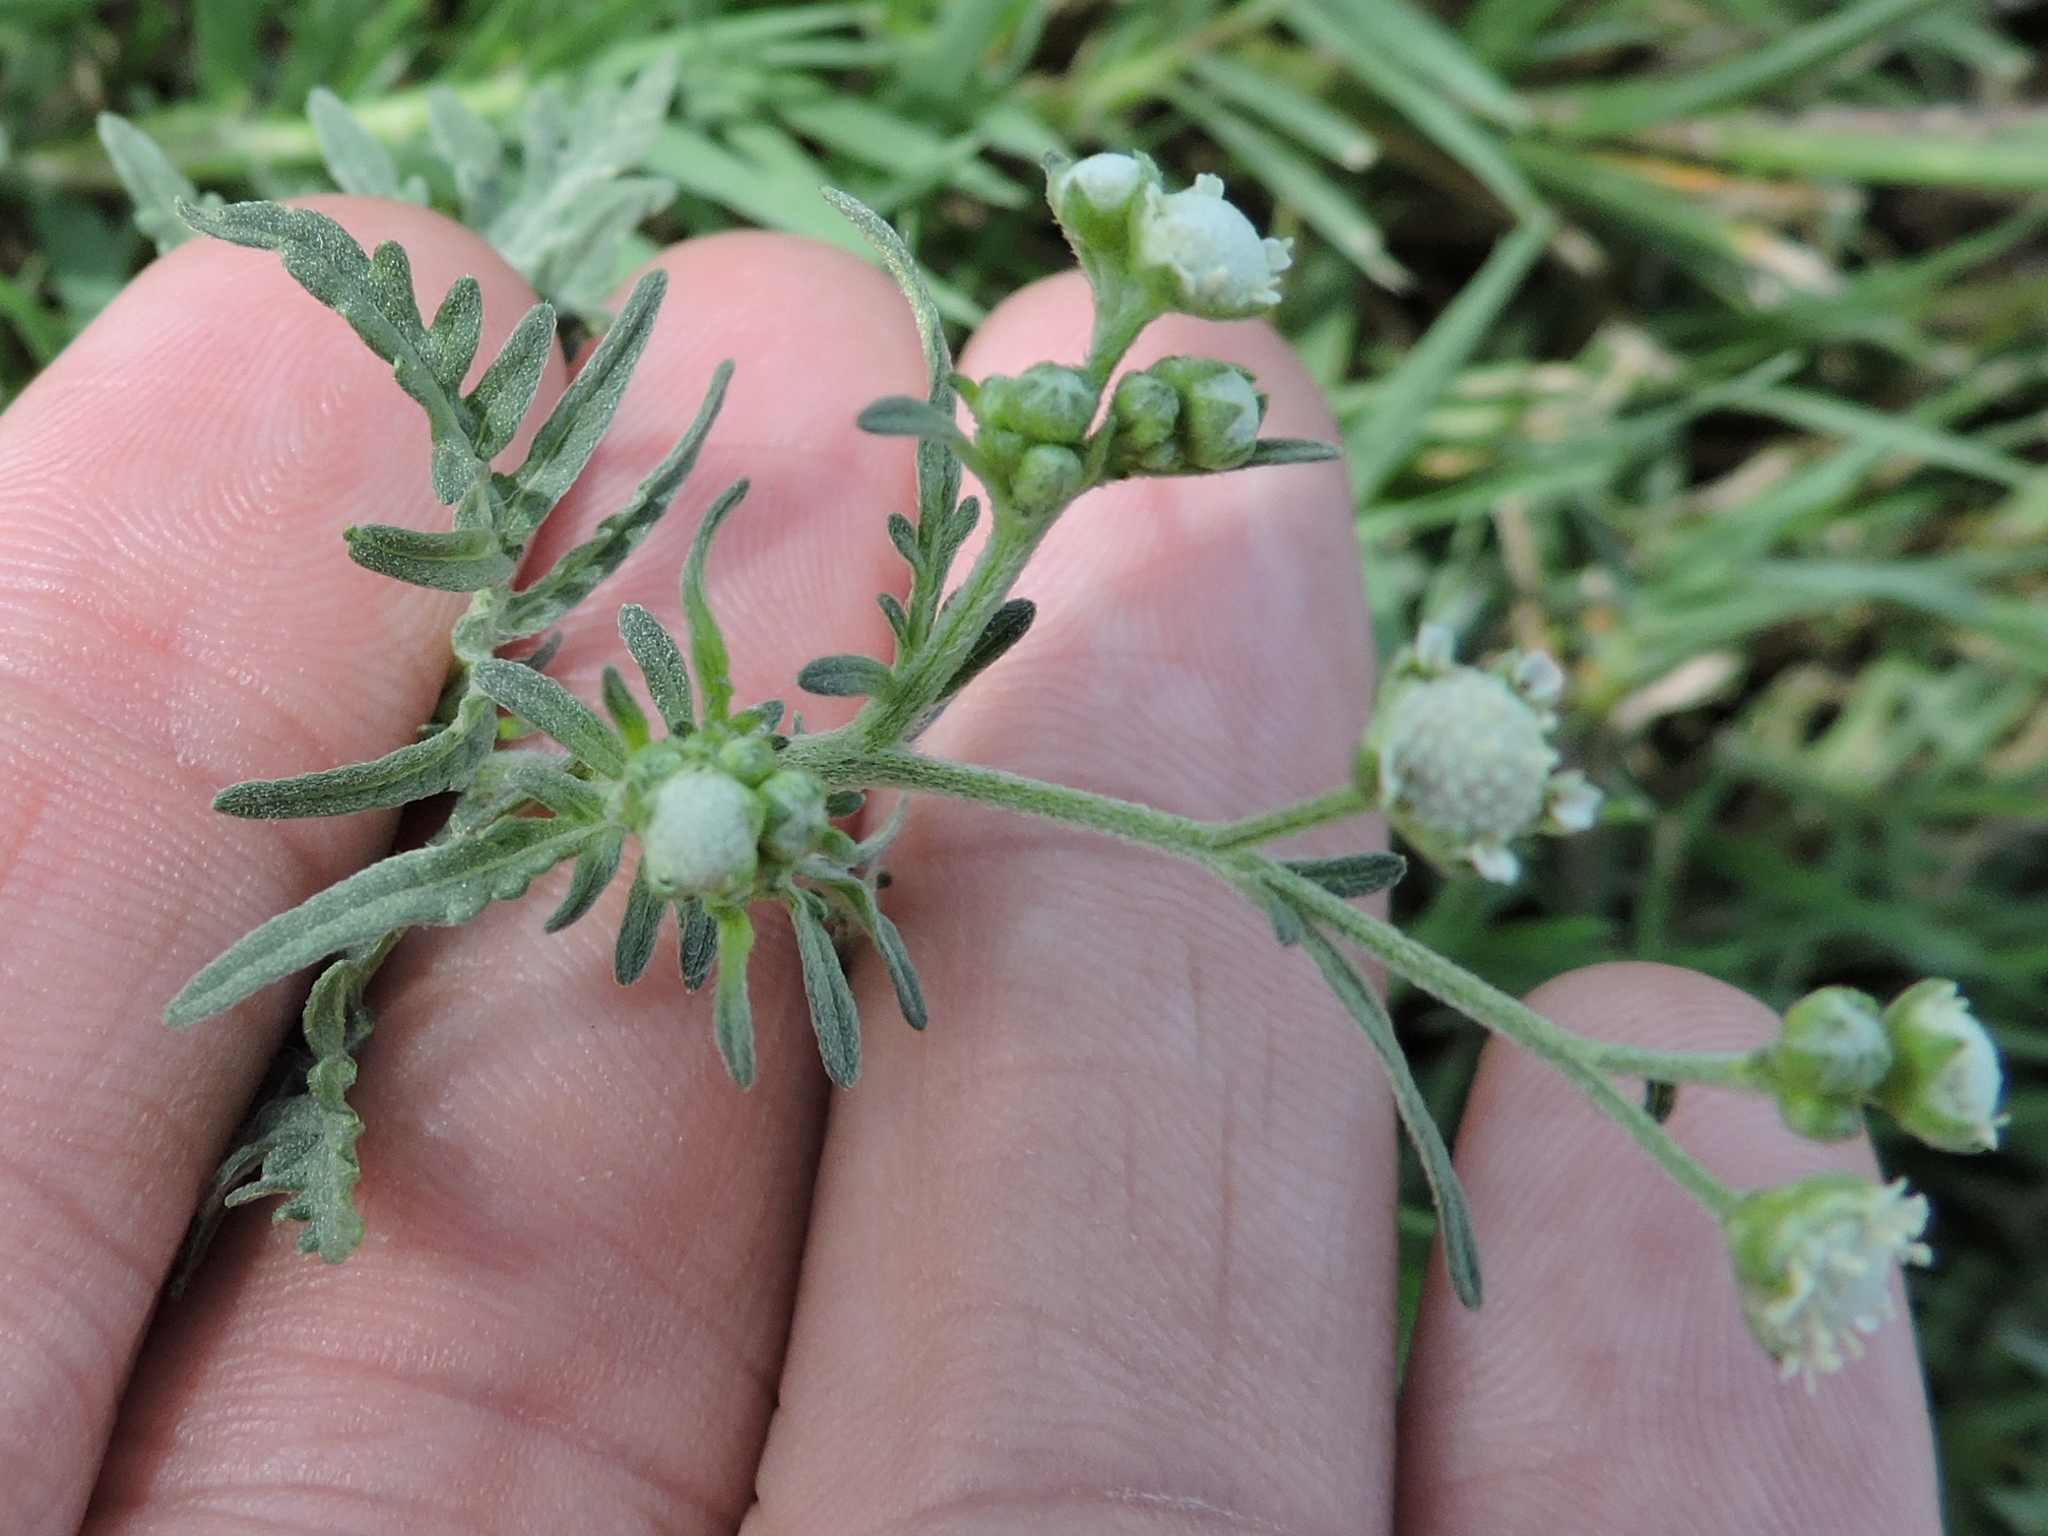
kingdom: Plantae
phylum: Tracheophyta
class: Magnoliopsida
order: Asterales
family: Asteraceae
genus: Parthenium
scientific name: Parthenium hysterophorus
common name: Santa maria feverfew
